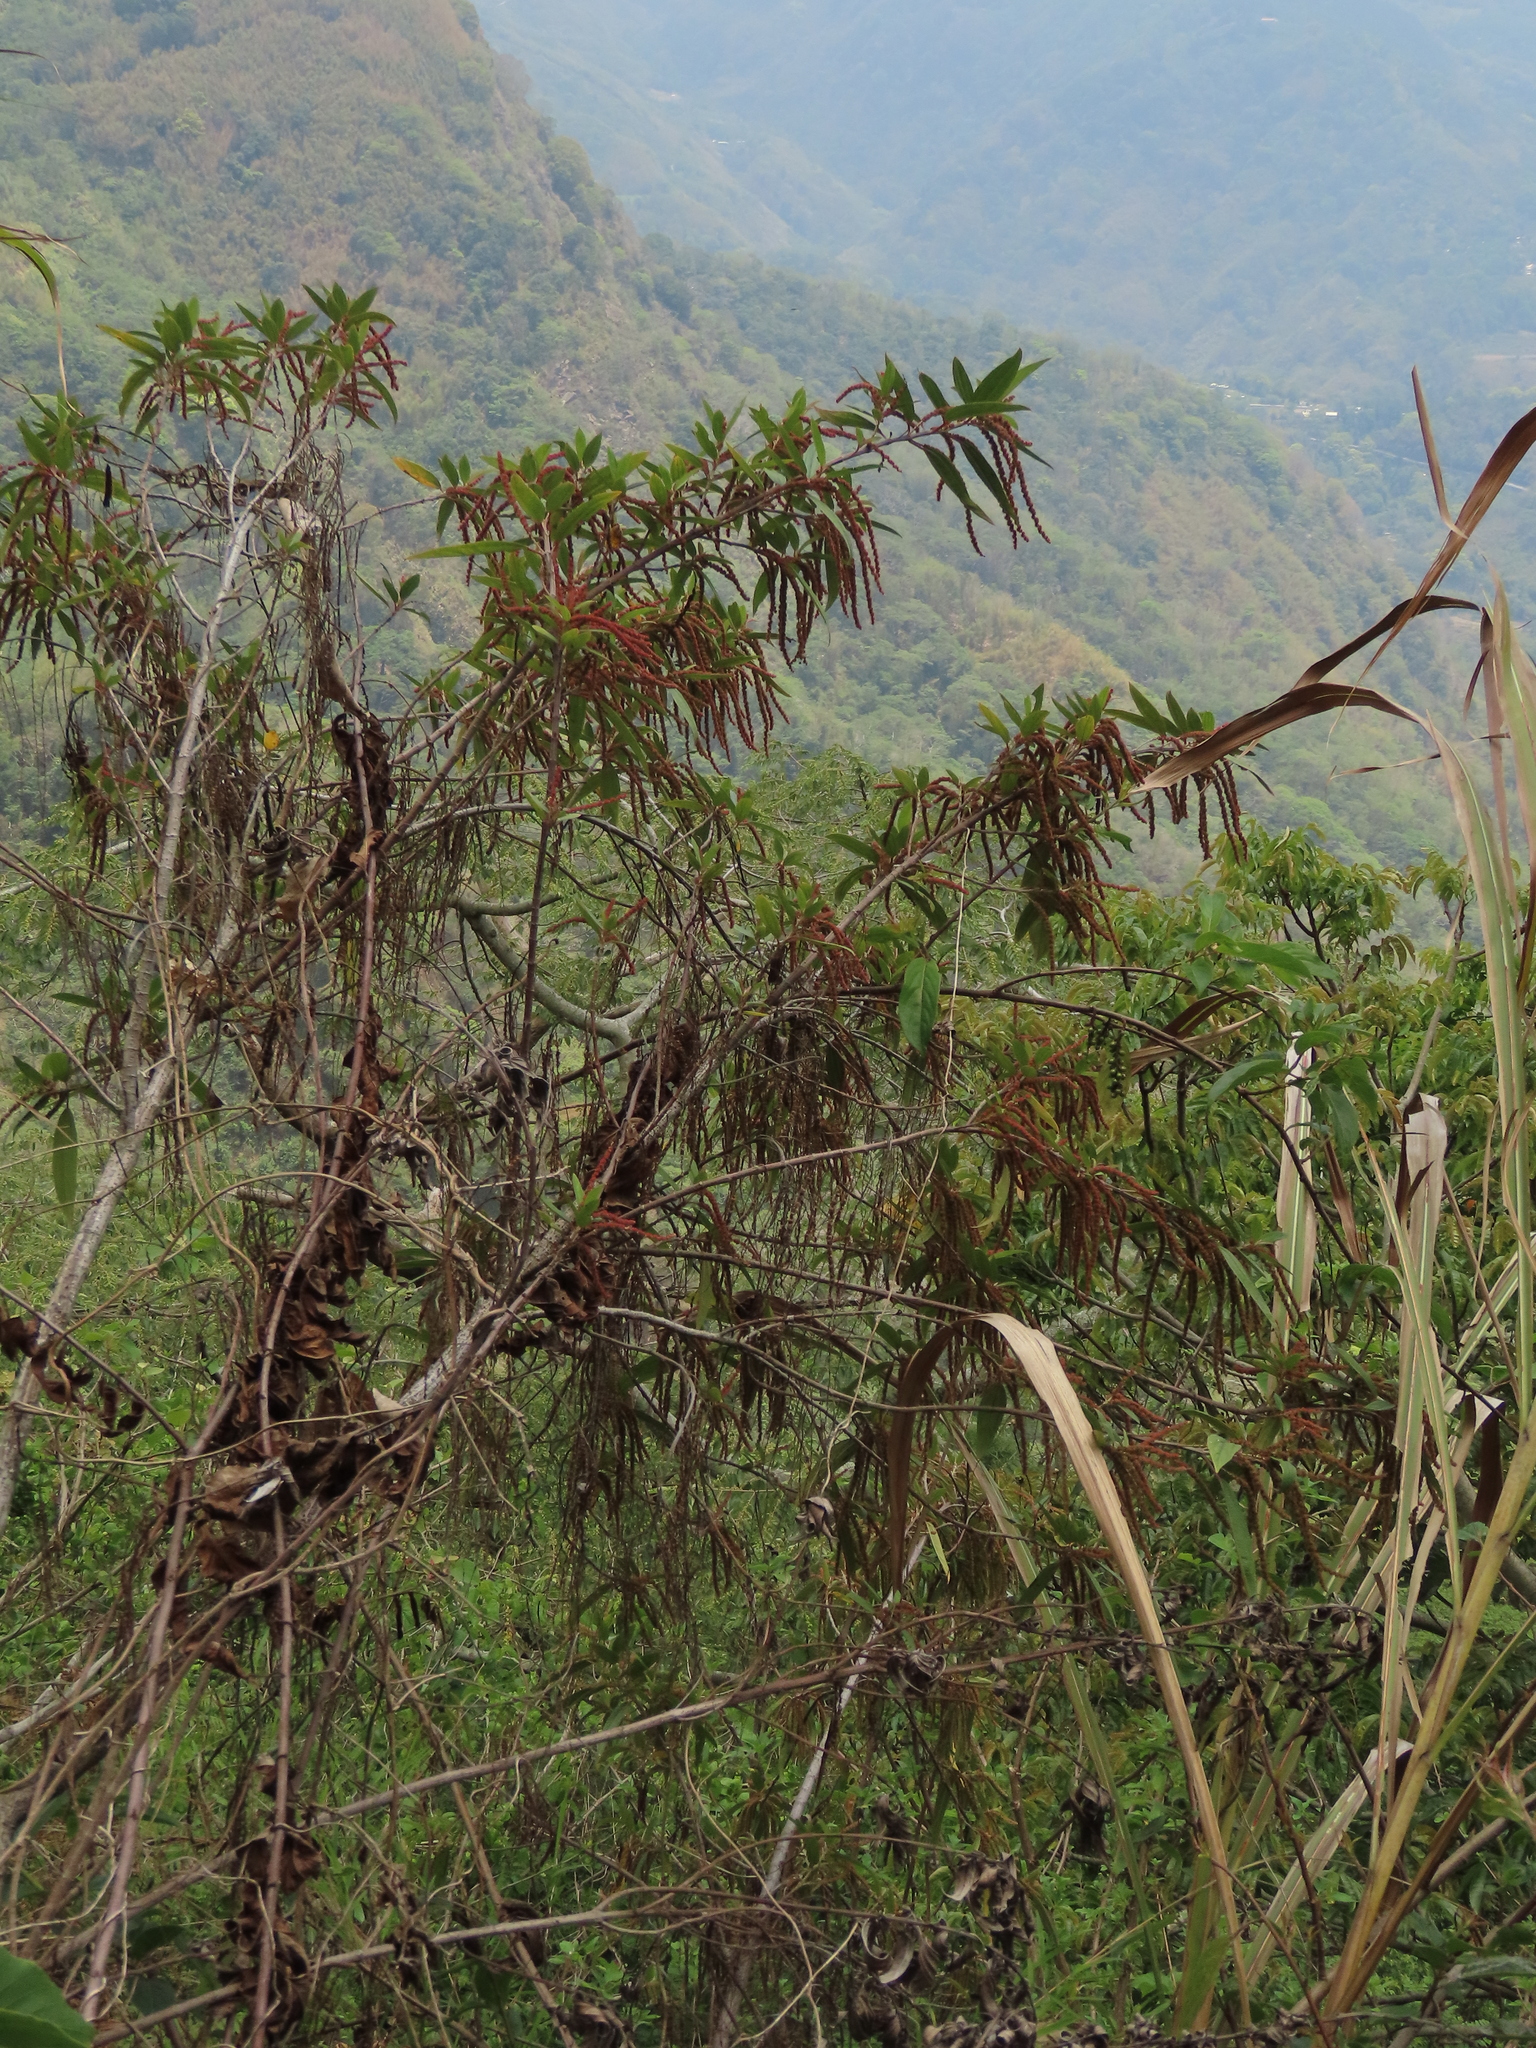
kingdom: Plantae
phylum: Tracheophyta
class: Magnoliopsida
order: Rosales
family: Urticaceae
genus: Boehmeria
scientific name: Boehmeria densiflora
